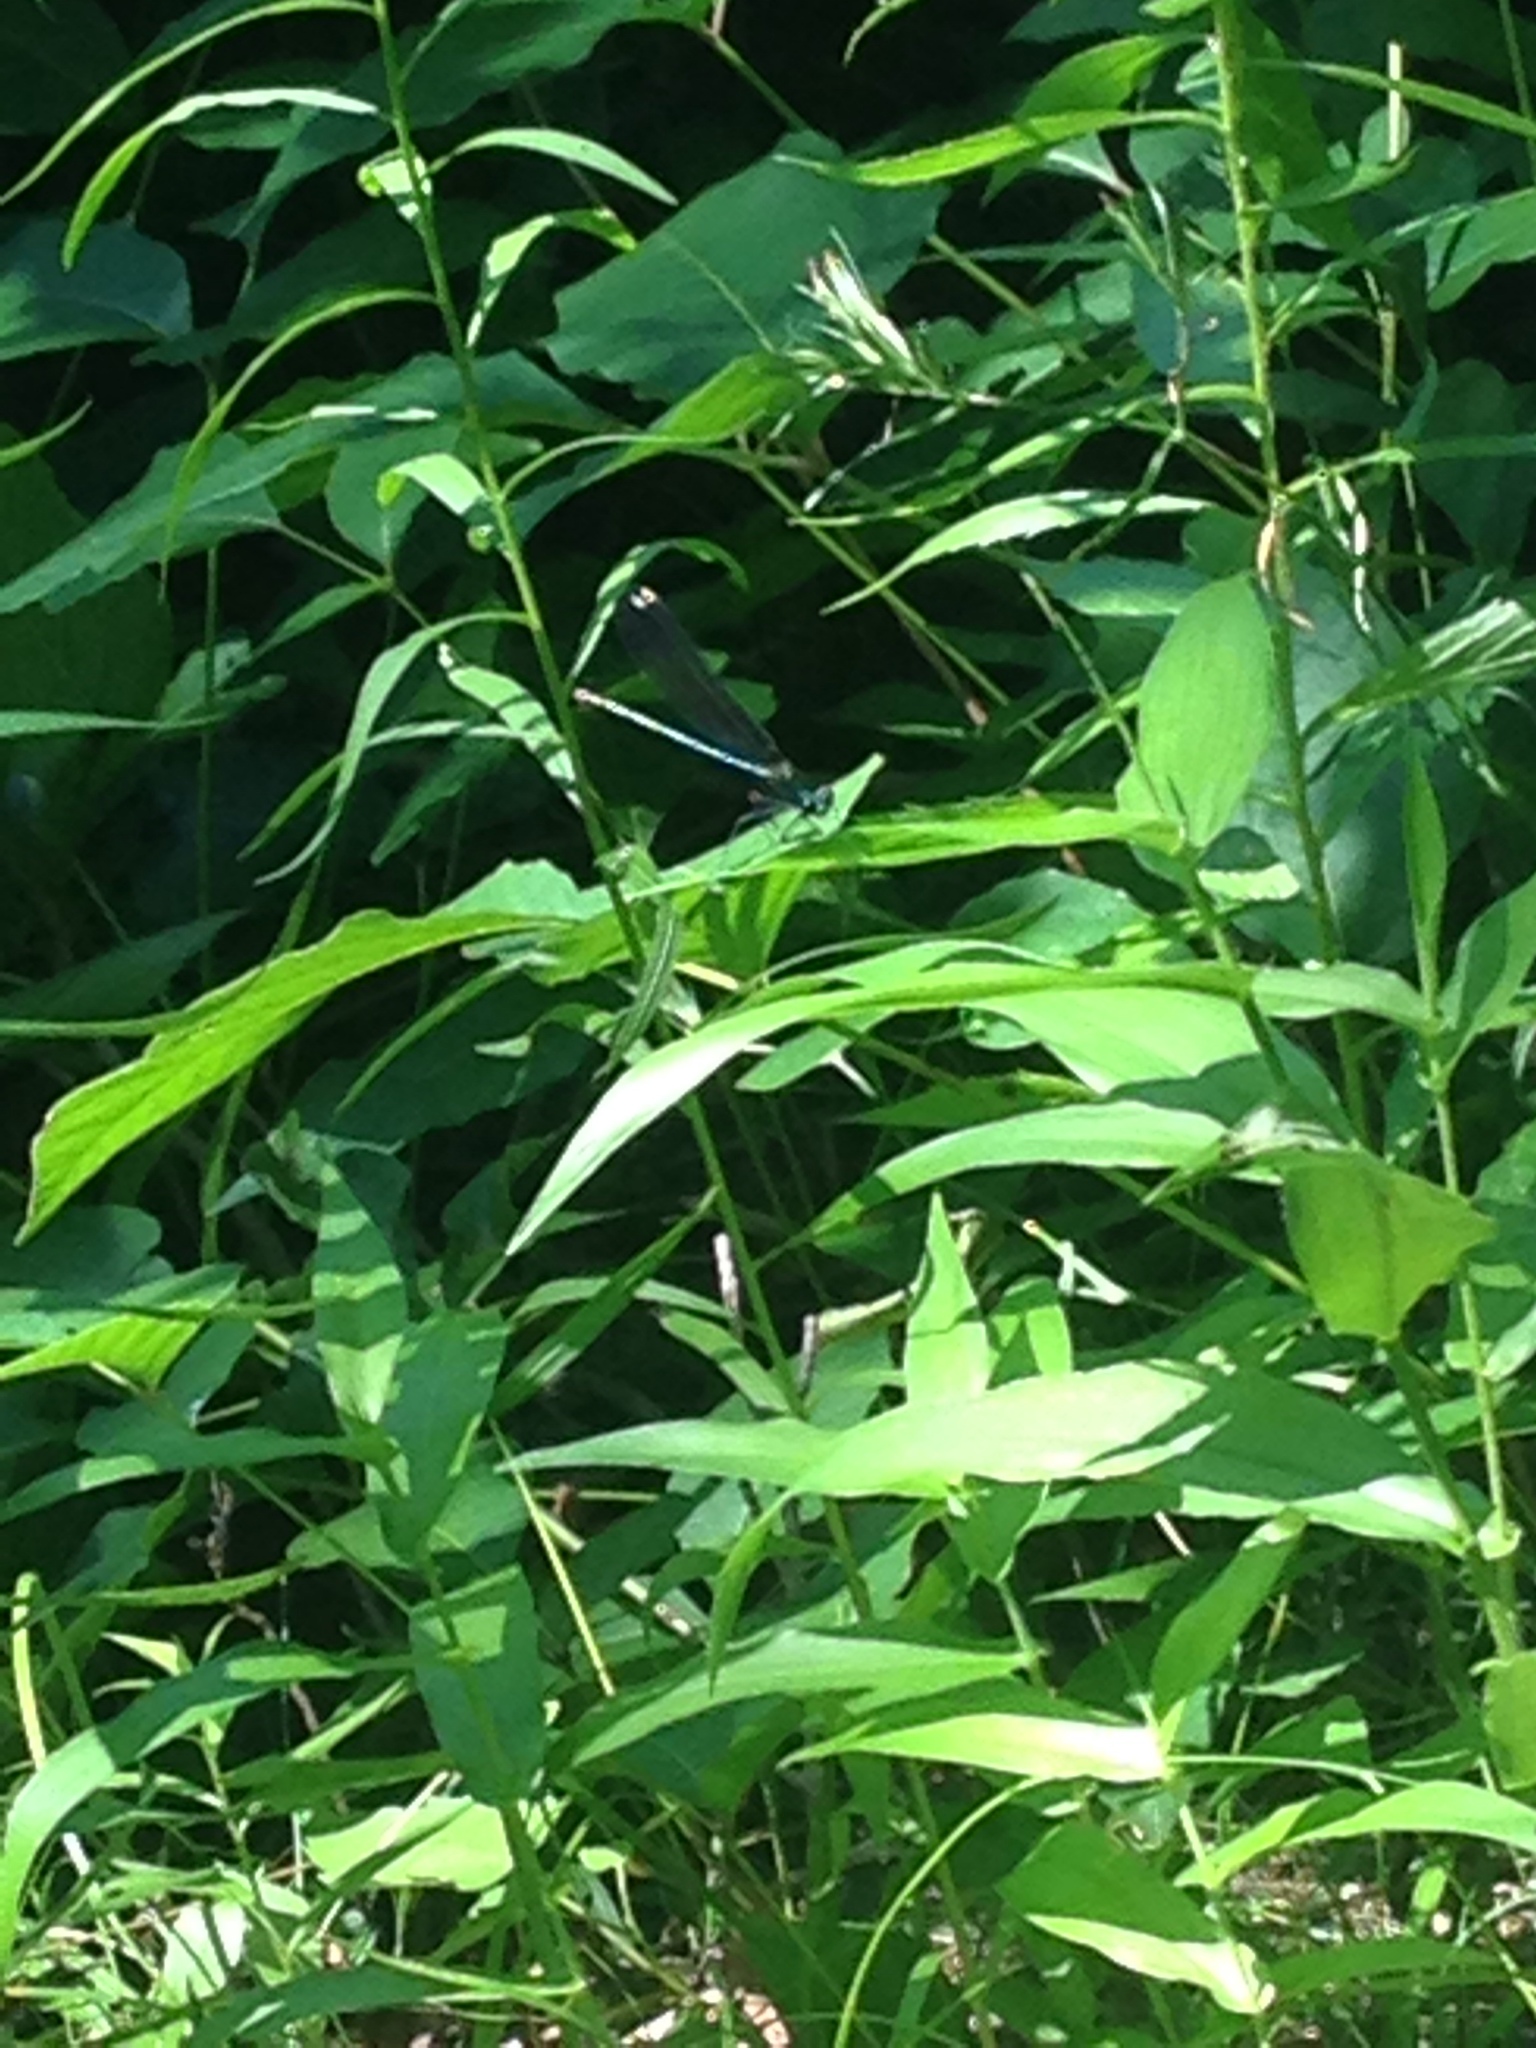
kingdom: Animalia
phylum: Arthropoda
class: Insecta
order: Odonata
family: Calopterygidae
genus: Calopteryx
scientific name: Calopteryx maculata
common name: Ebony jewelwing
